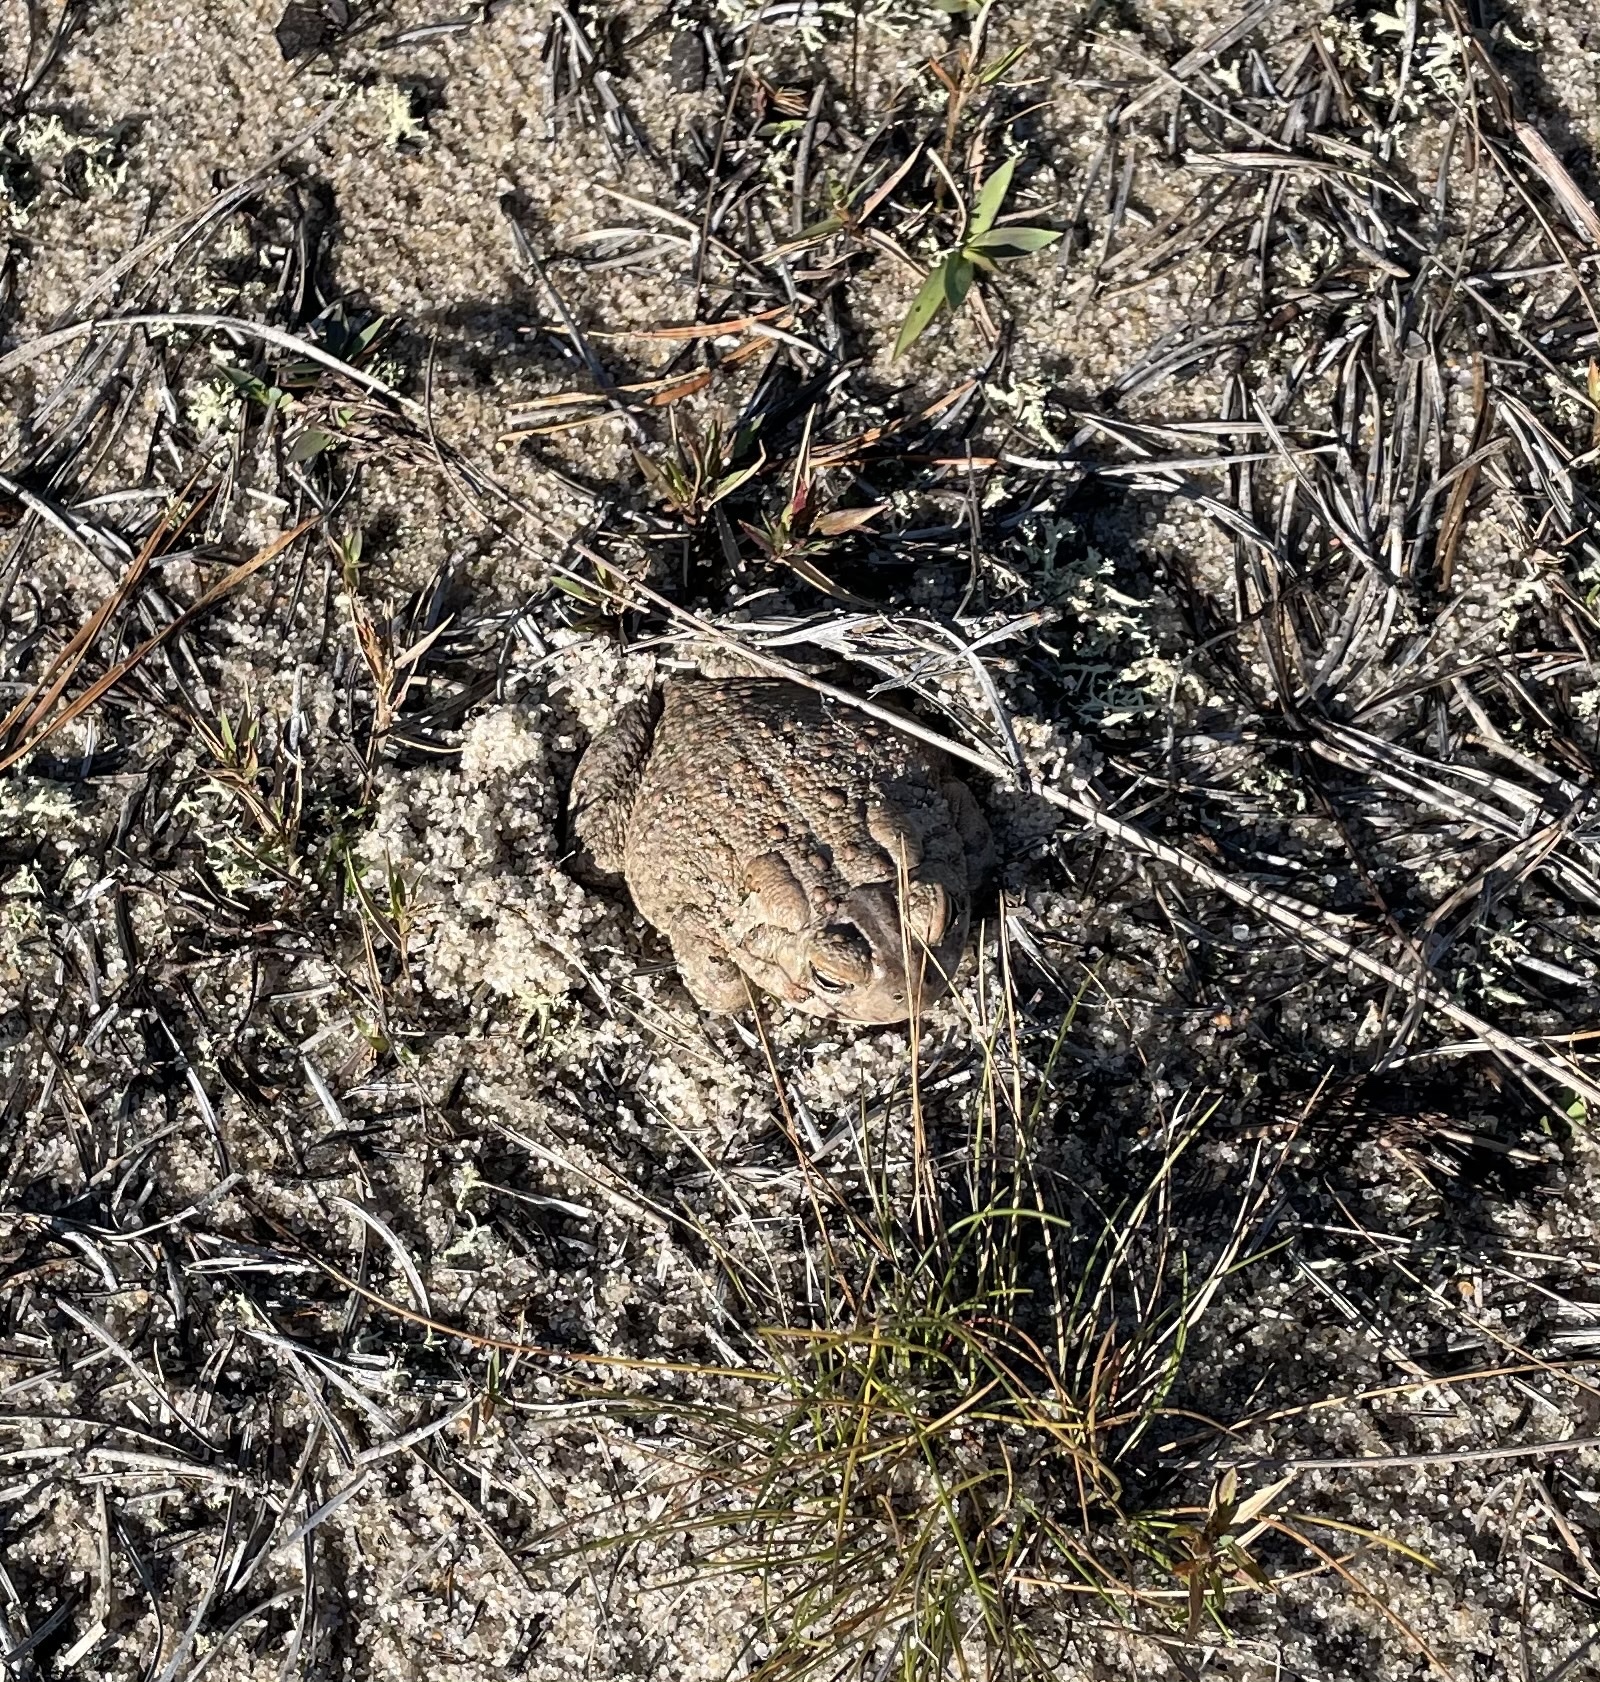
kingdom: Animalia
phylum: Chordata
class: Amphibia
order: Anura
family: Bufonidae
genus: Anaxyrus
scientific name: Anaxyrus
